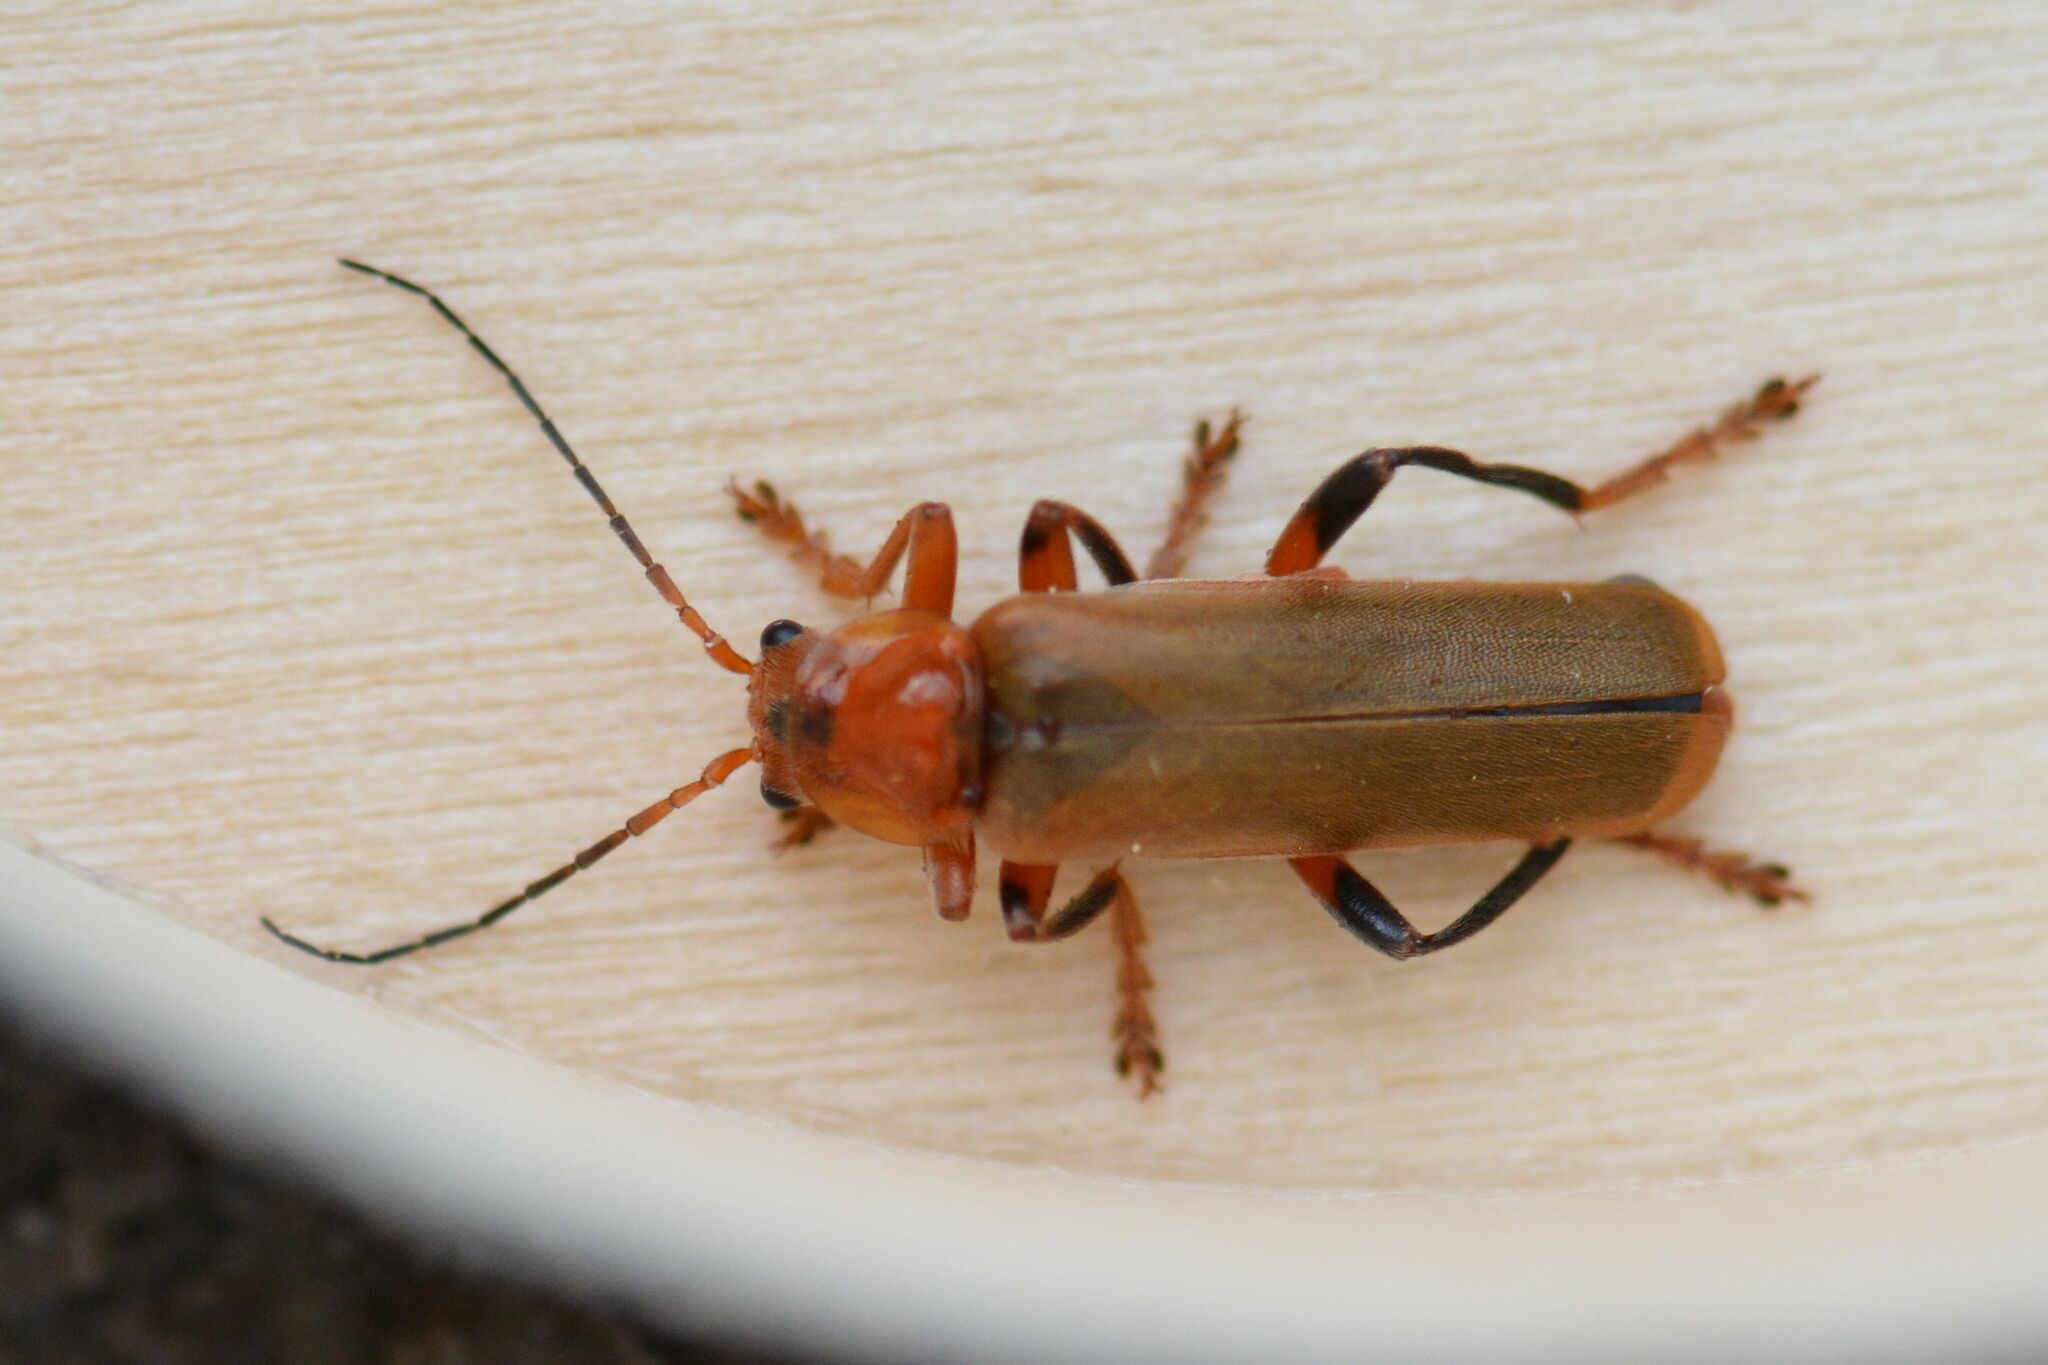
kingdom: Animalia
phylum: Arthropoda
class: Insecta
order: Coleoptera
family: Cantharidae
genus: Cantharis
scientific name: Cantharis livida
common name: Livid soldier beetle
